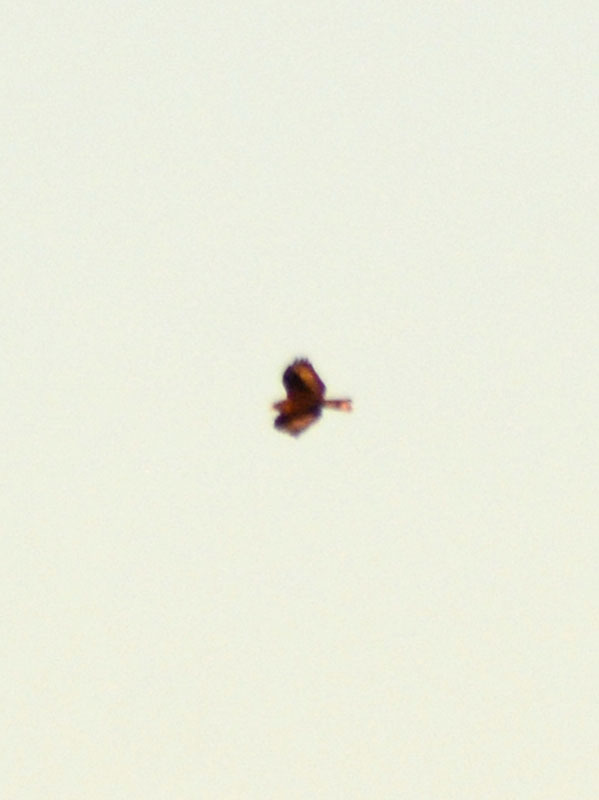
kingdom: Animalia
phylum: Chordata
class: Aves
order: Accipitriformes
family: Accipitridae
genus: Buteo
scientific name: Buteo brachyurus
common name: Short-tailed hawk
